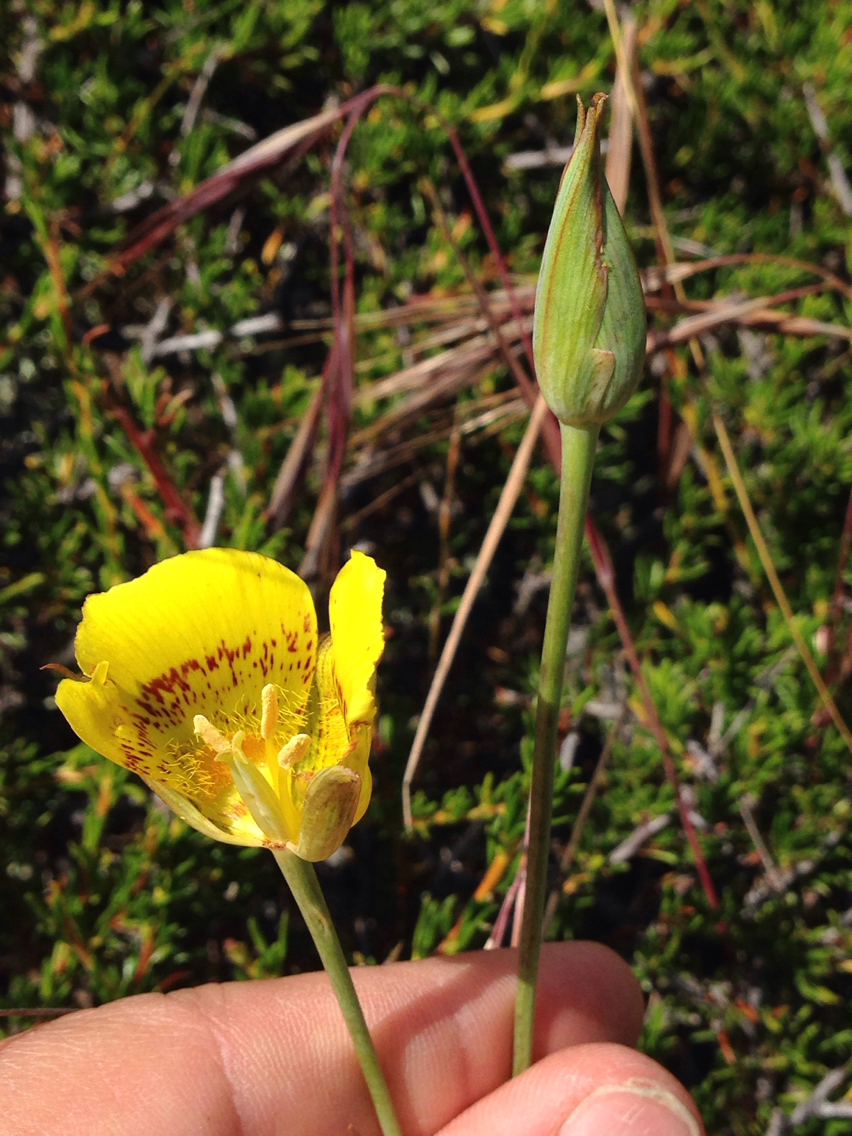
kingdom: Plantae
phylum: Tracheophyta
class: Liliopsida
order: Liliales
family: Liliaceae
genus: Calochortus
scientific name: Calochortus luteus
